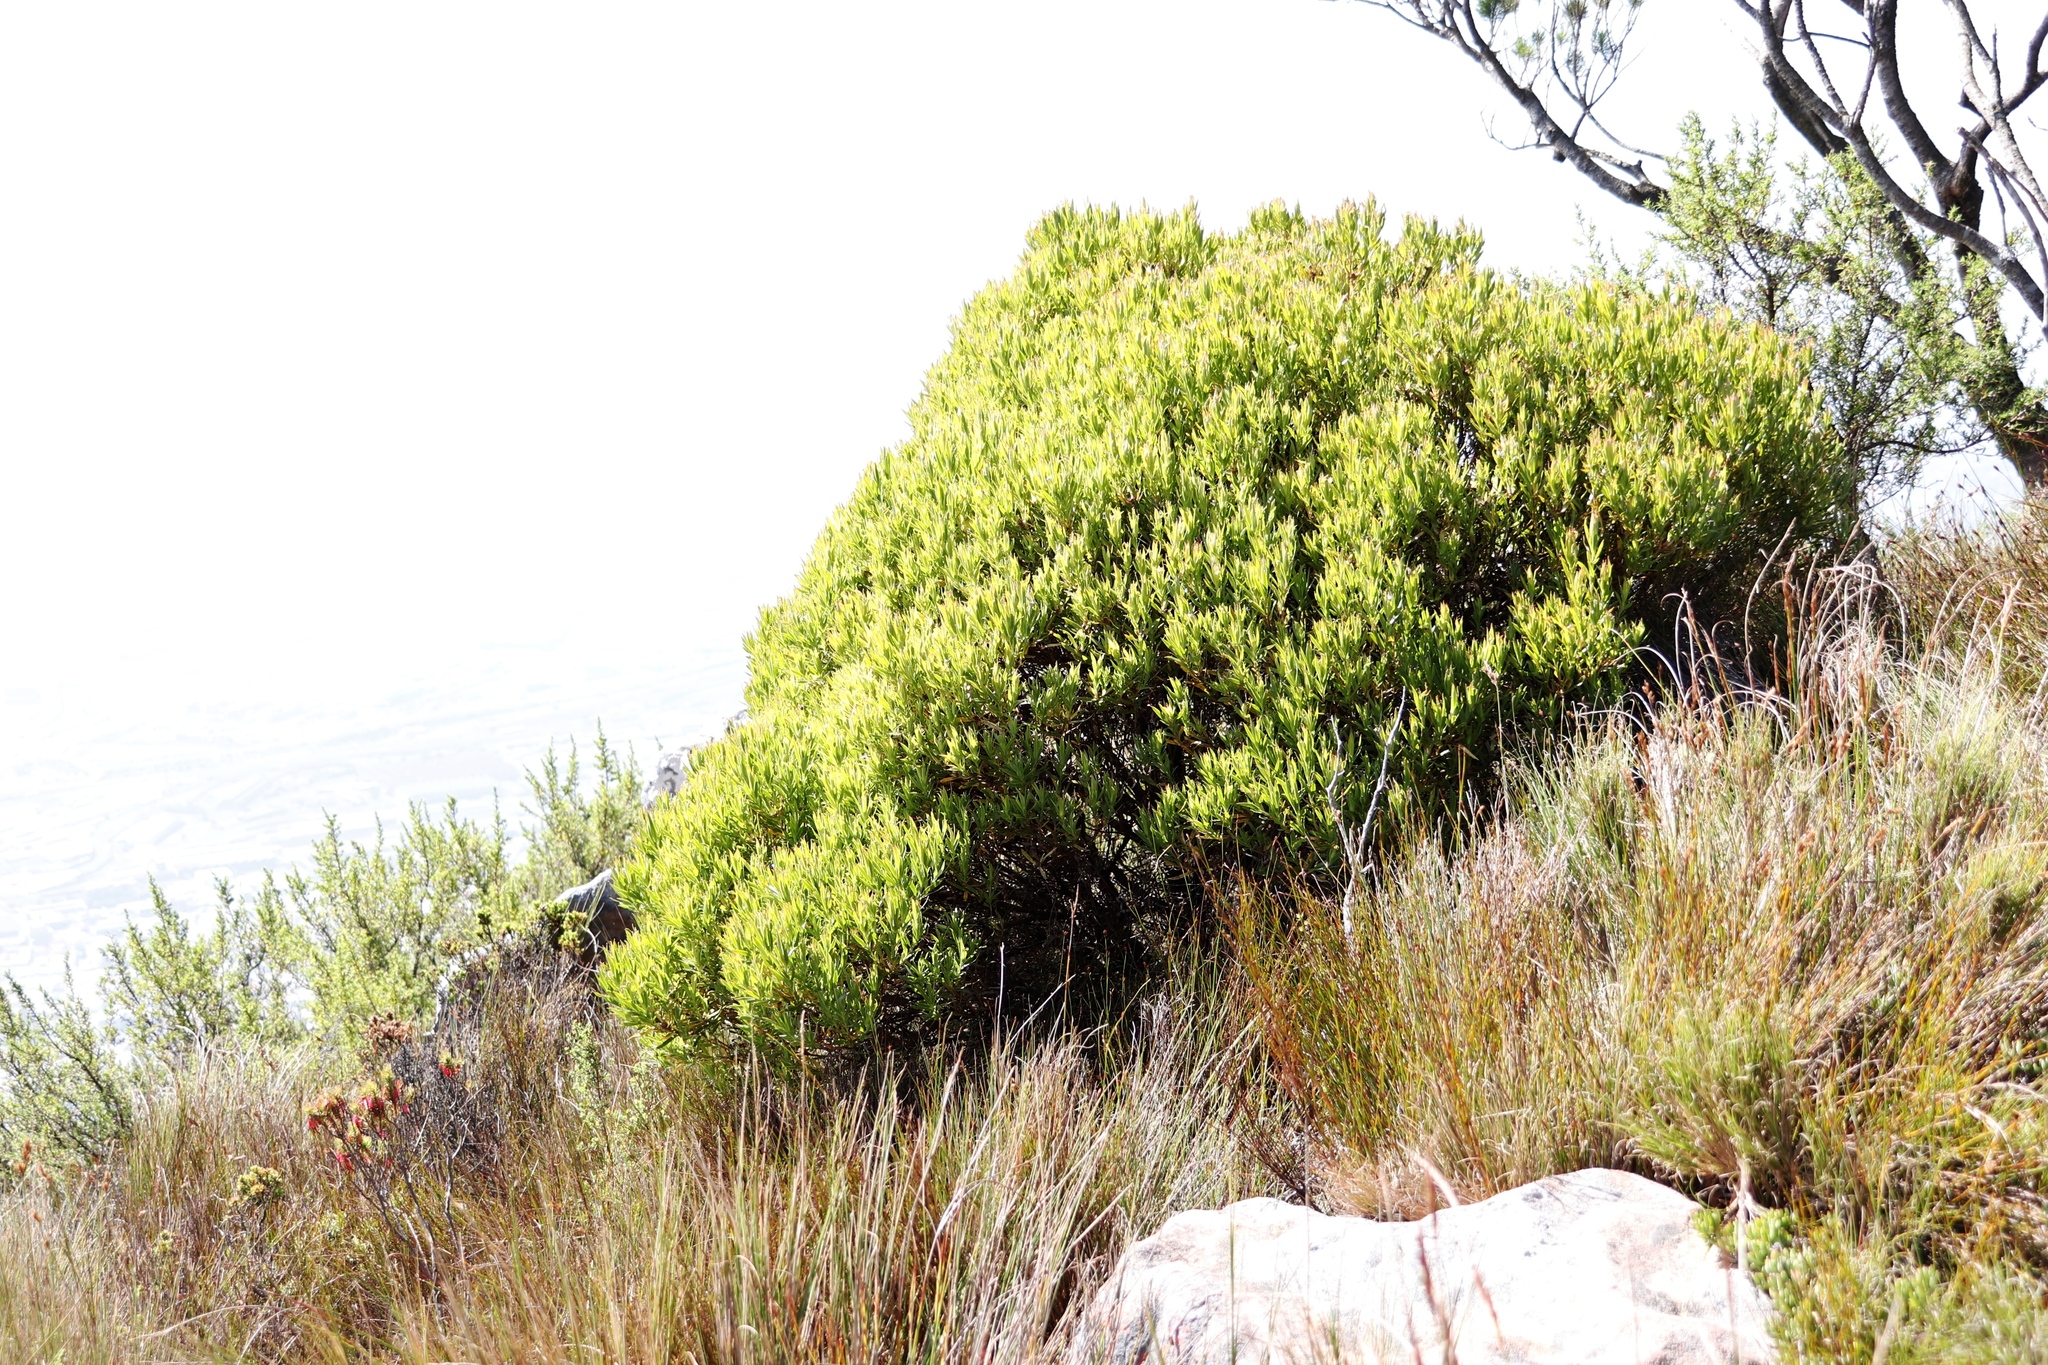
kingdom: Plantae
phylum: Tracheophyta
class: Magnoliopsida
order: Proteales
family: Proteaceae
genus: Leucadendron
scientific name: Leucadendron xanthoconus
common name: Sickle-leaf conebush
